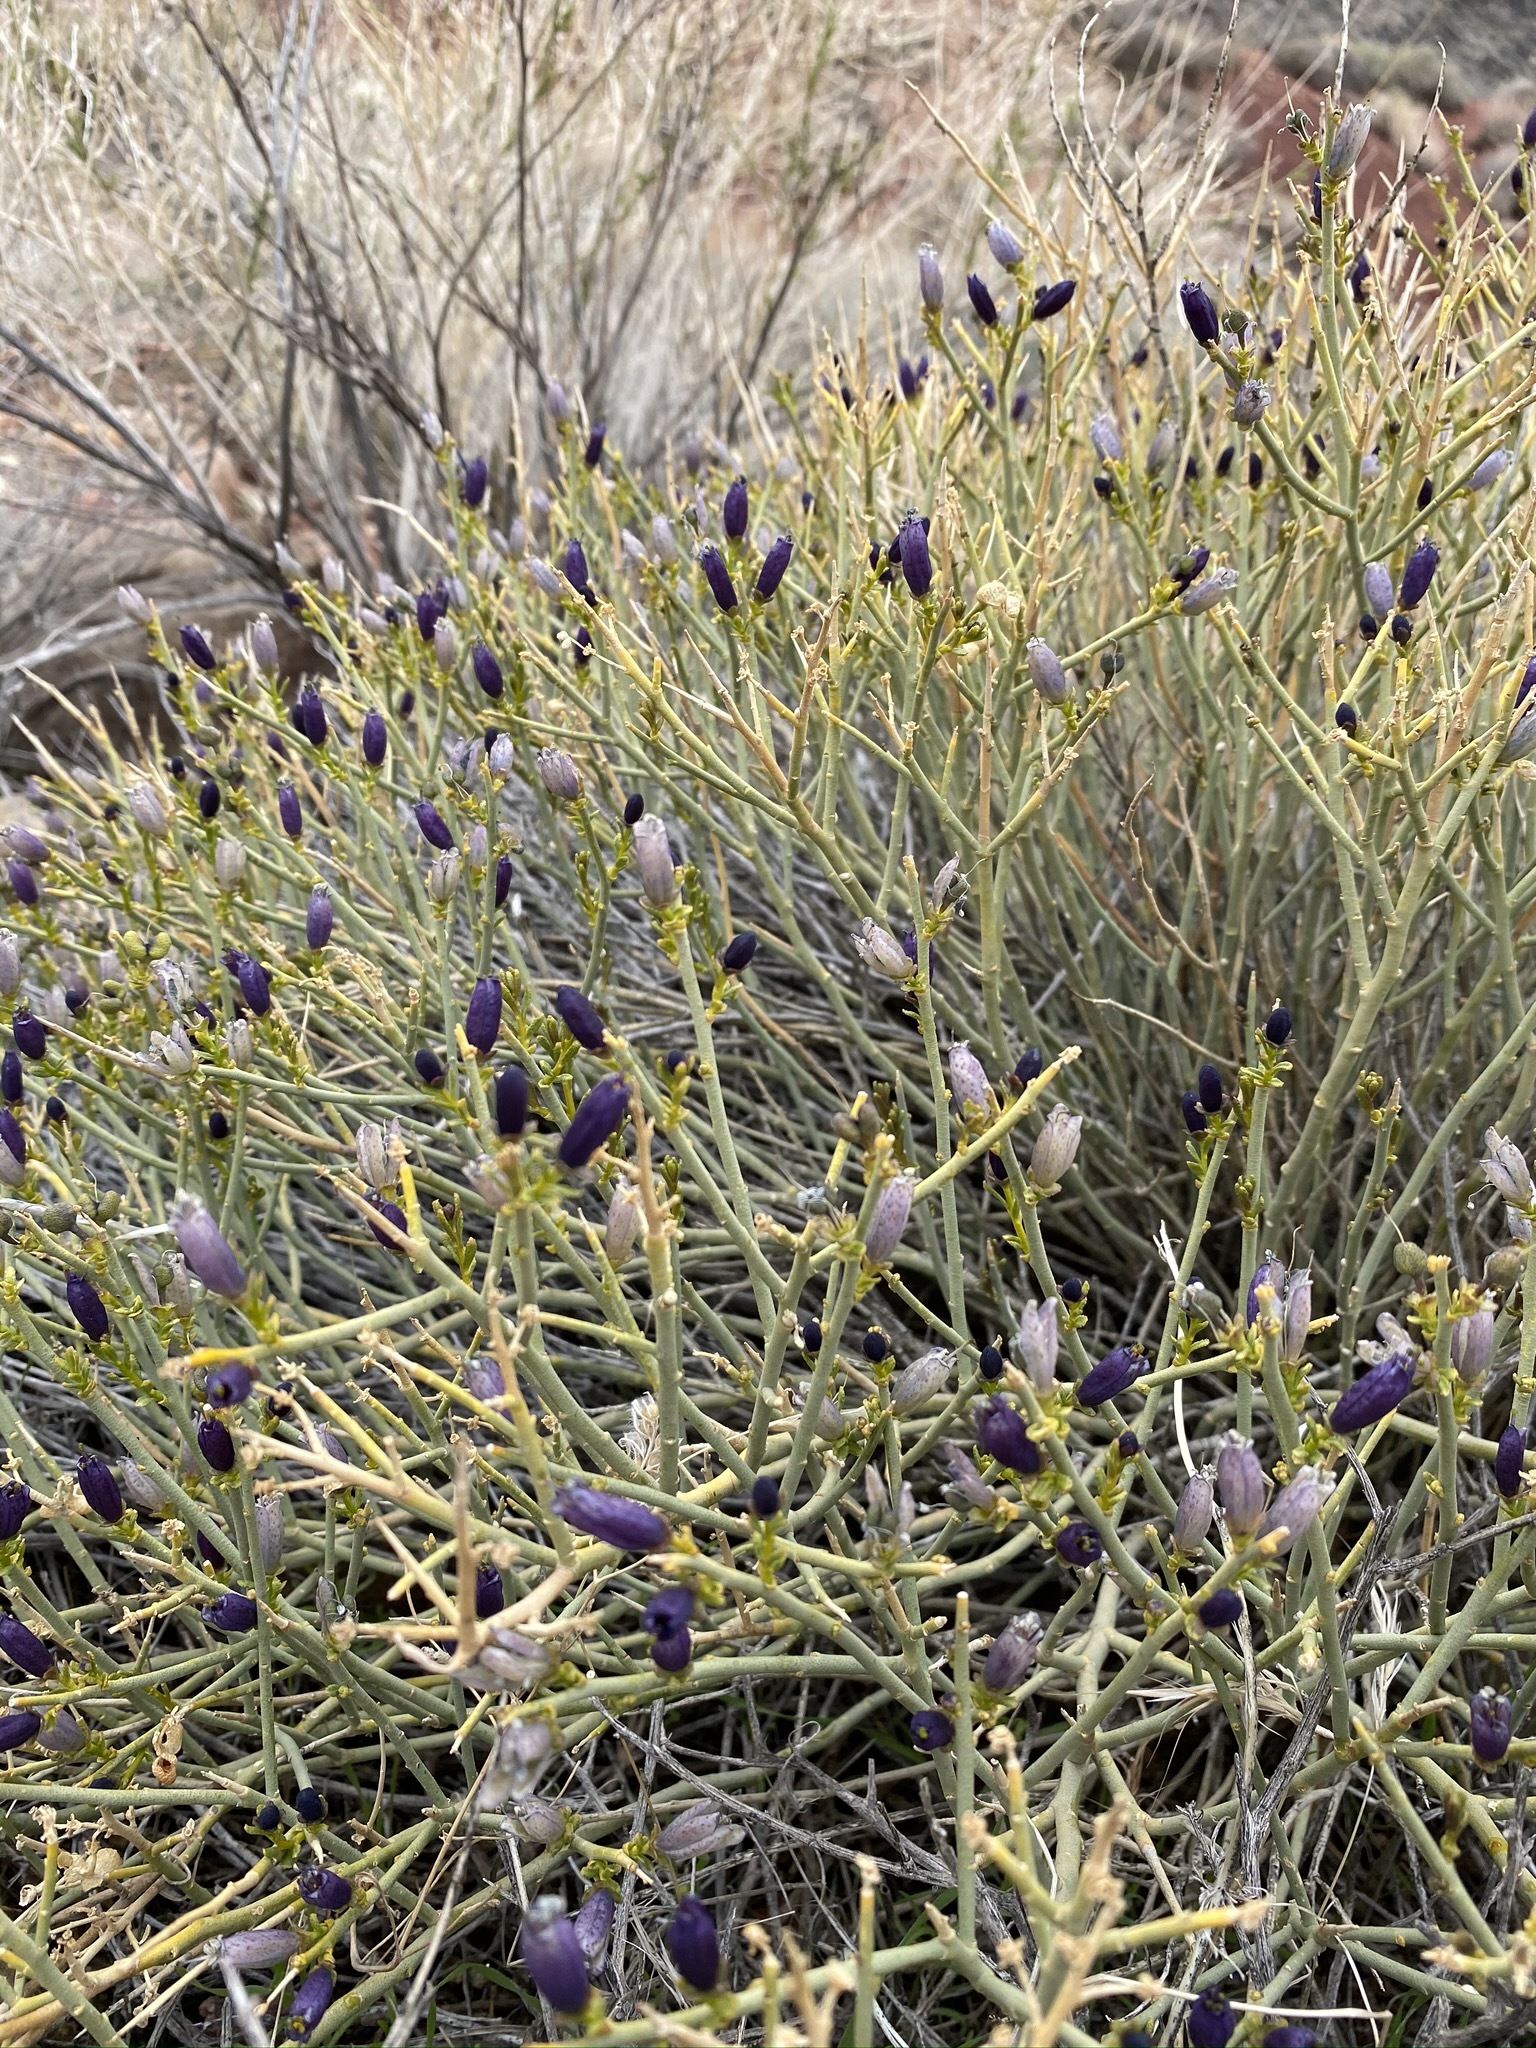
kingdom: Plantae
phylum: Tracheophyta
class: Magnoliopsida
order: Sapindales
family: Rutaceae
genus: Thamnosma
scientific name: Thamnosma montana
